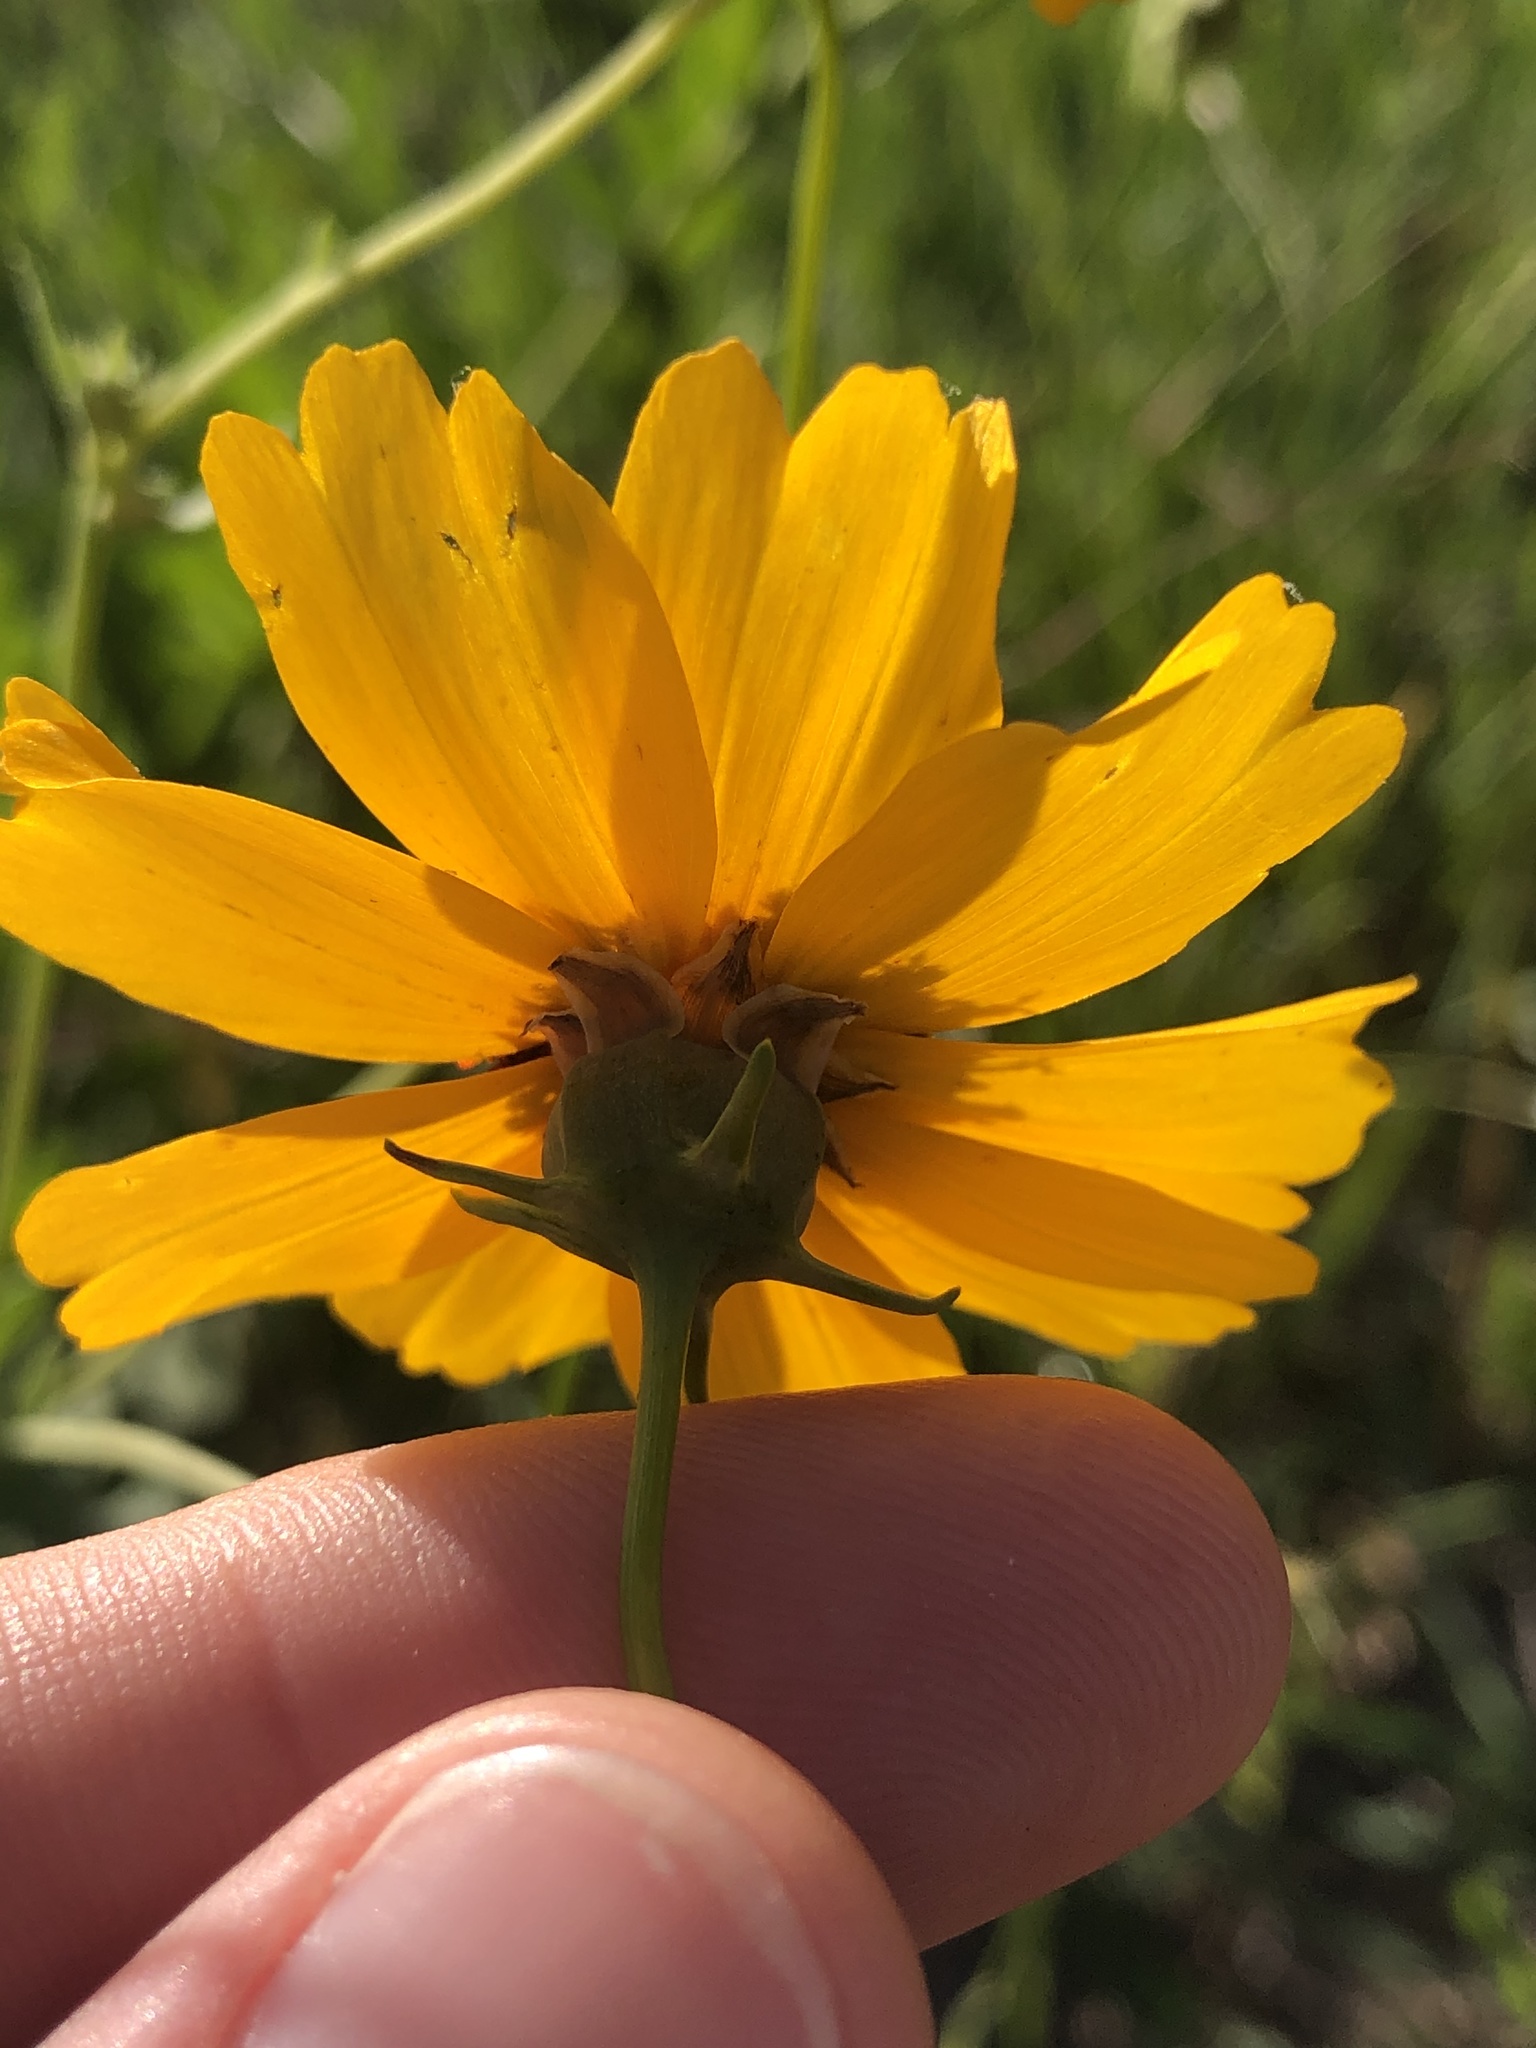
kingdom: Plantae
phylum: Tracheophyta
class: Magnoliopsida
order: Asterales
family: Asteraceae
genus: Thelesperma
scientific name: Thelesperma filifolium
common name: Stiff greenthread
